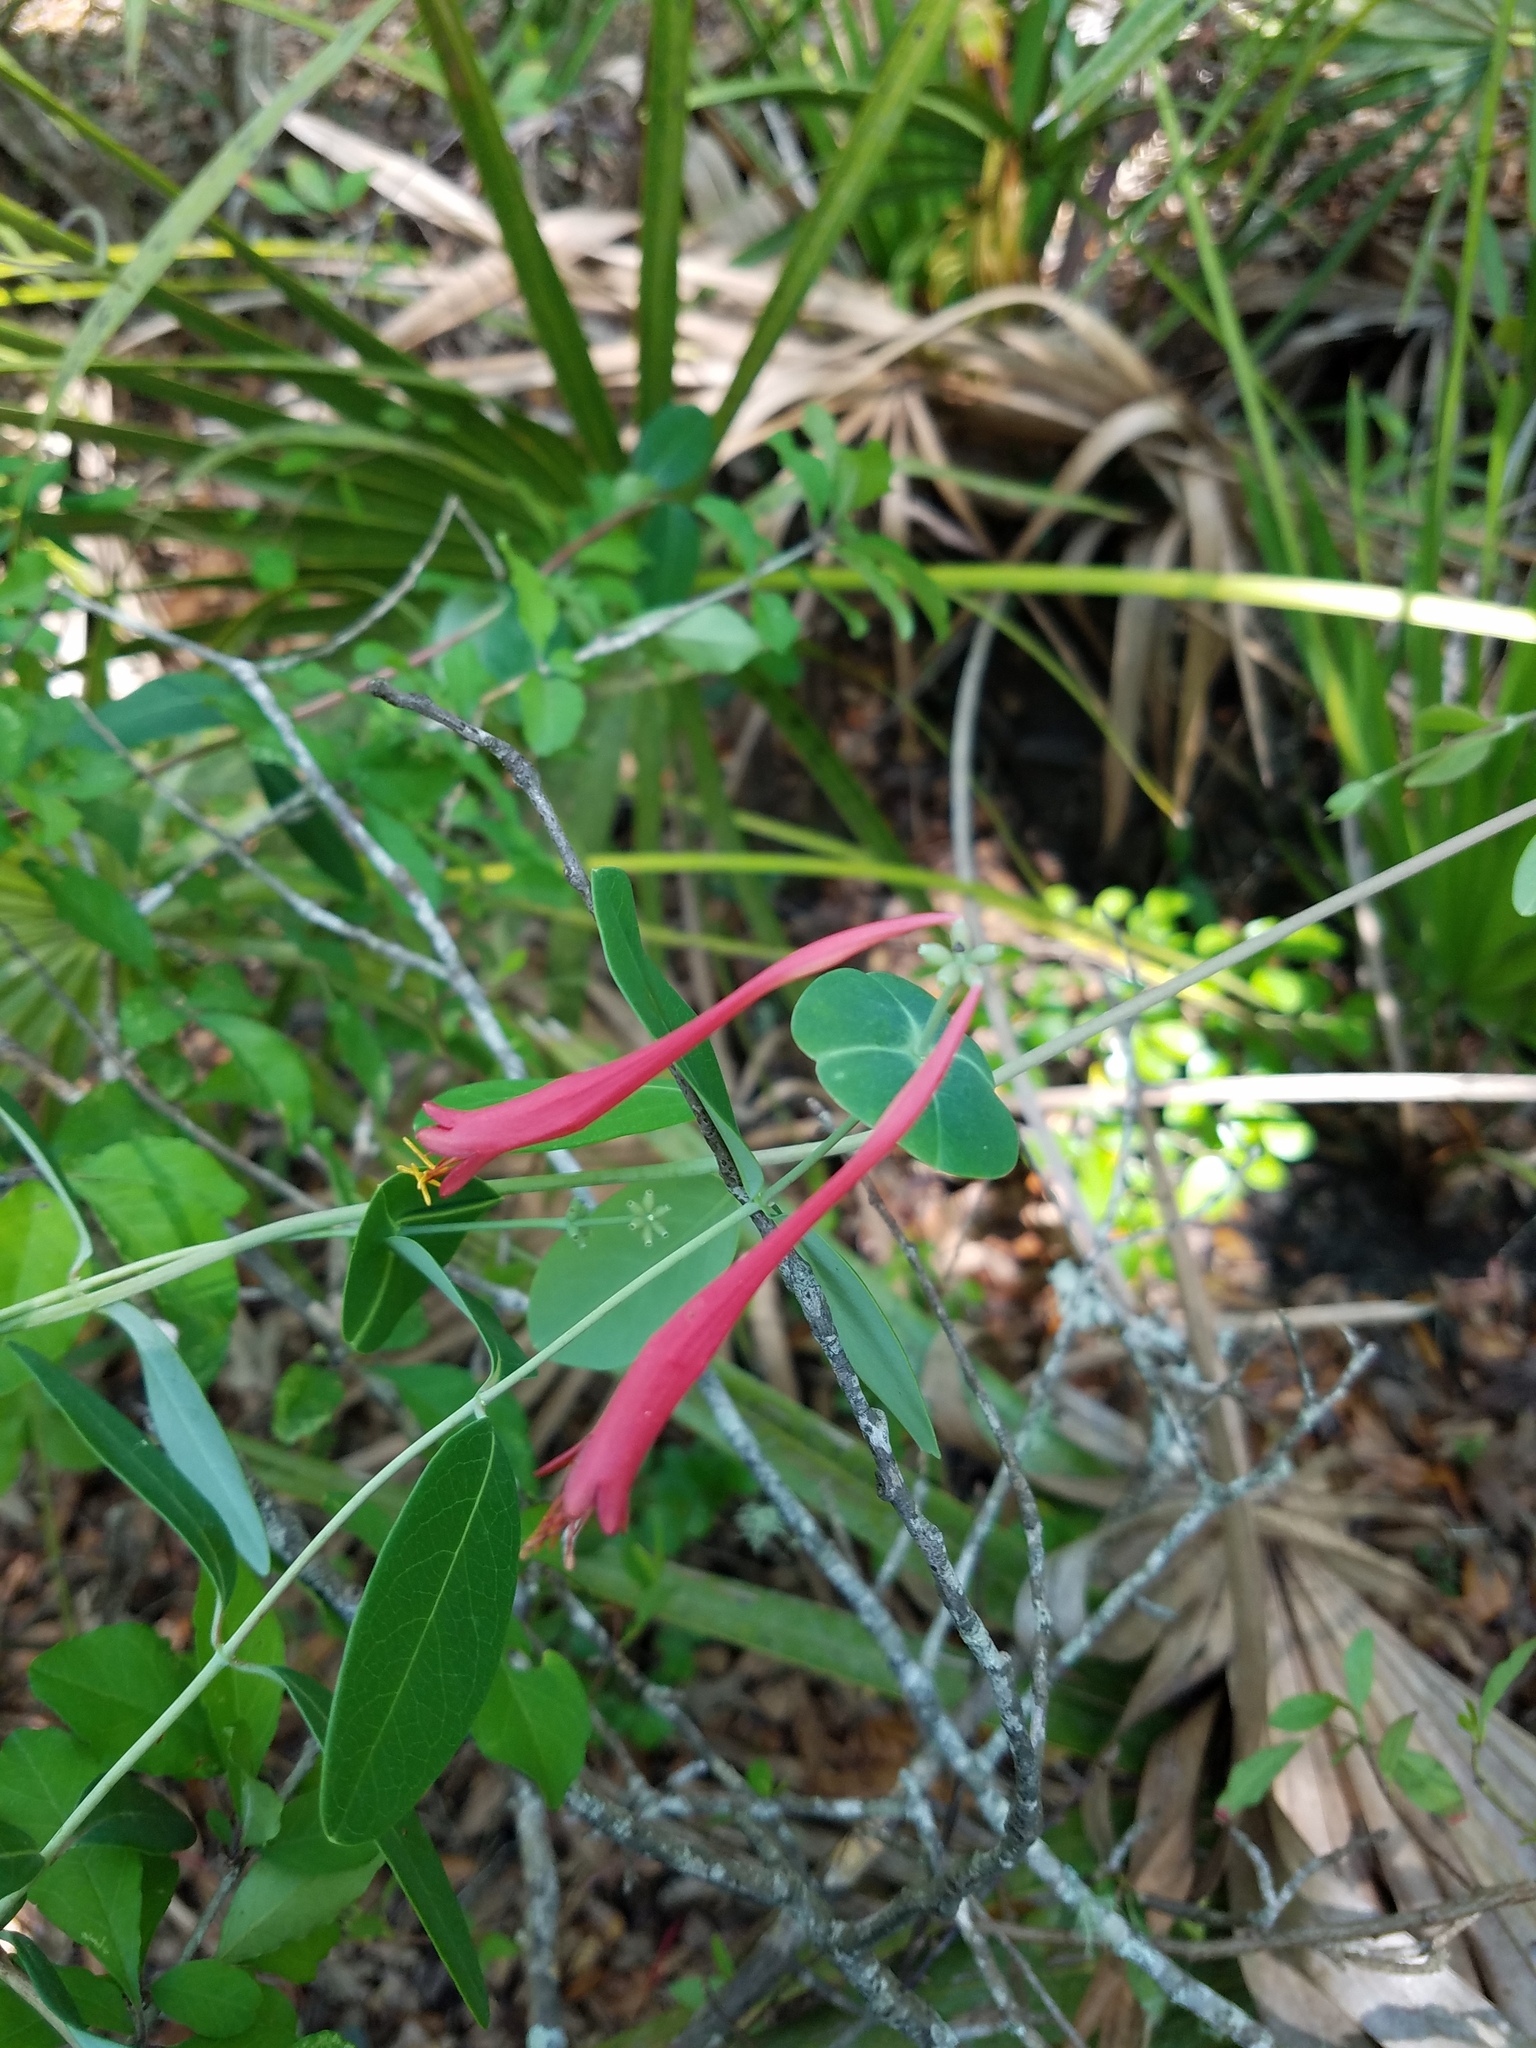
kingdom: Plantae
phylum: Tracheophyta
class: Magnoliopsida
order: Dipsacales
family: Caprifoliaceae
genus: Lonicera
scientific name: Lonicera sempervirens
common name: Coral honeysuckle
